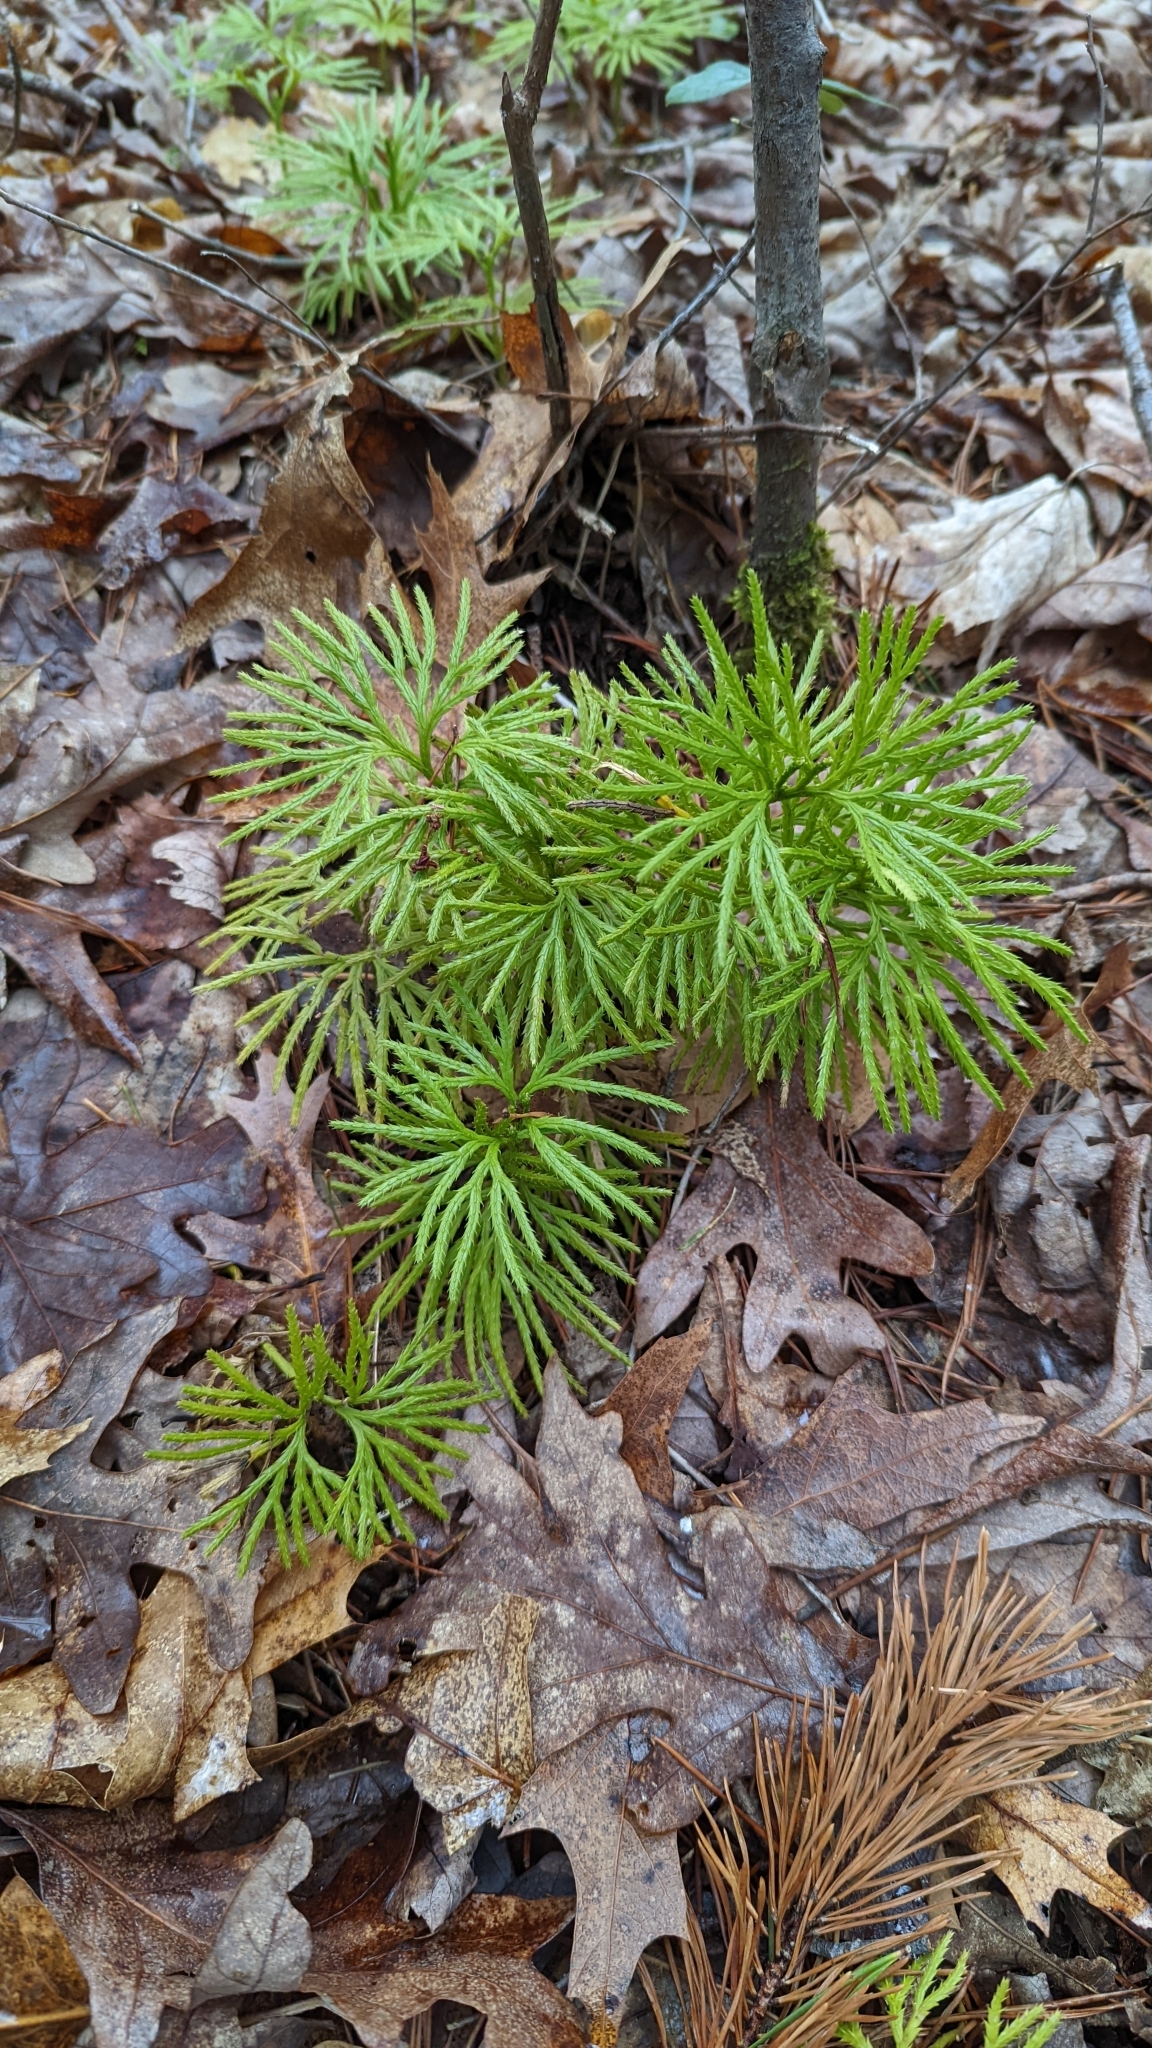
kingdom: Plantae
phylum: Tracheophyta
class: Lycopodiopsida
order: Lycopodiales
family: Lycopodiaceae
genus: Diphasiastrum
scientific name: Diphasiastrum digitatum
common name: Southern running-pine
